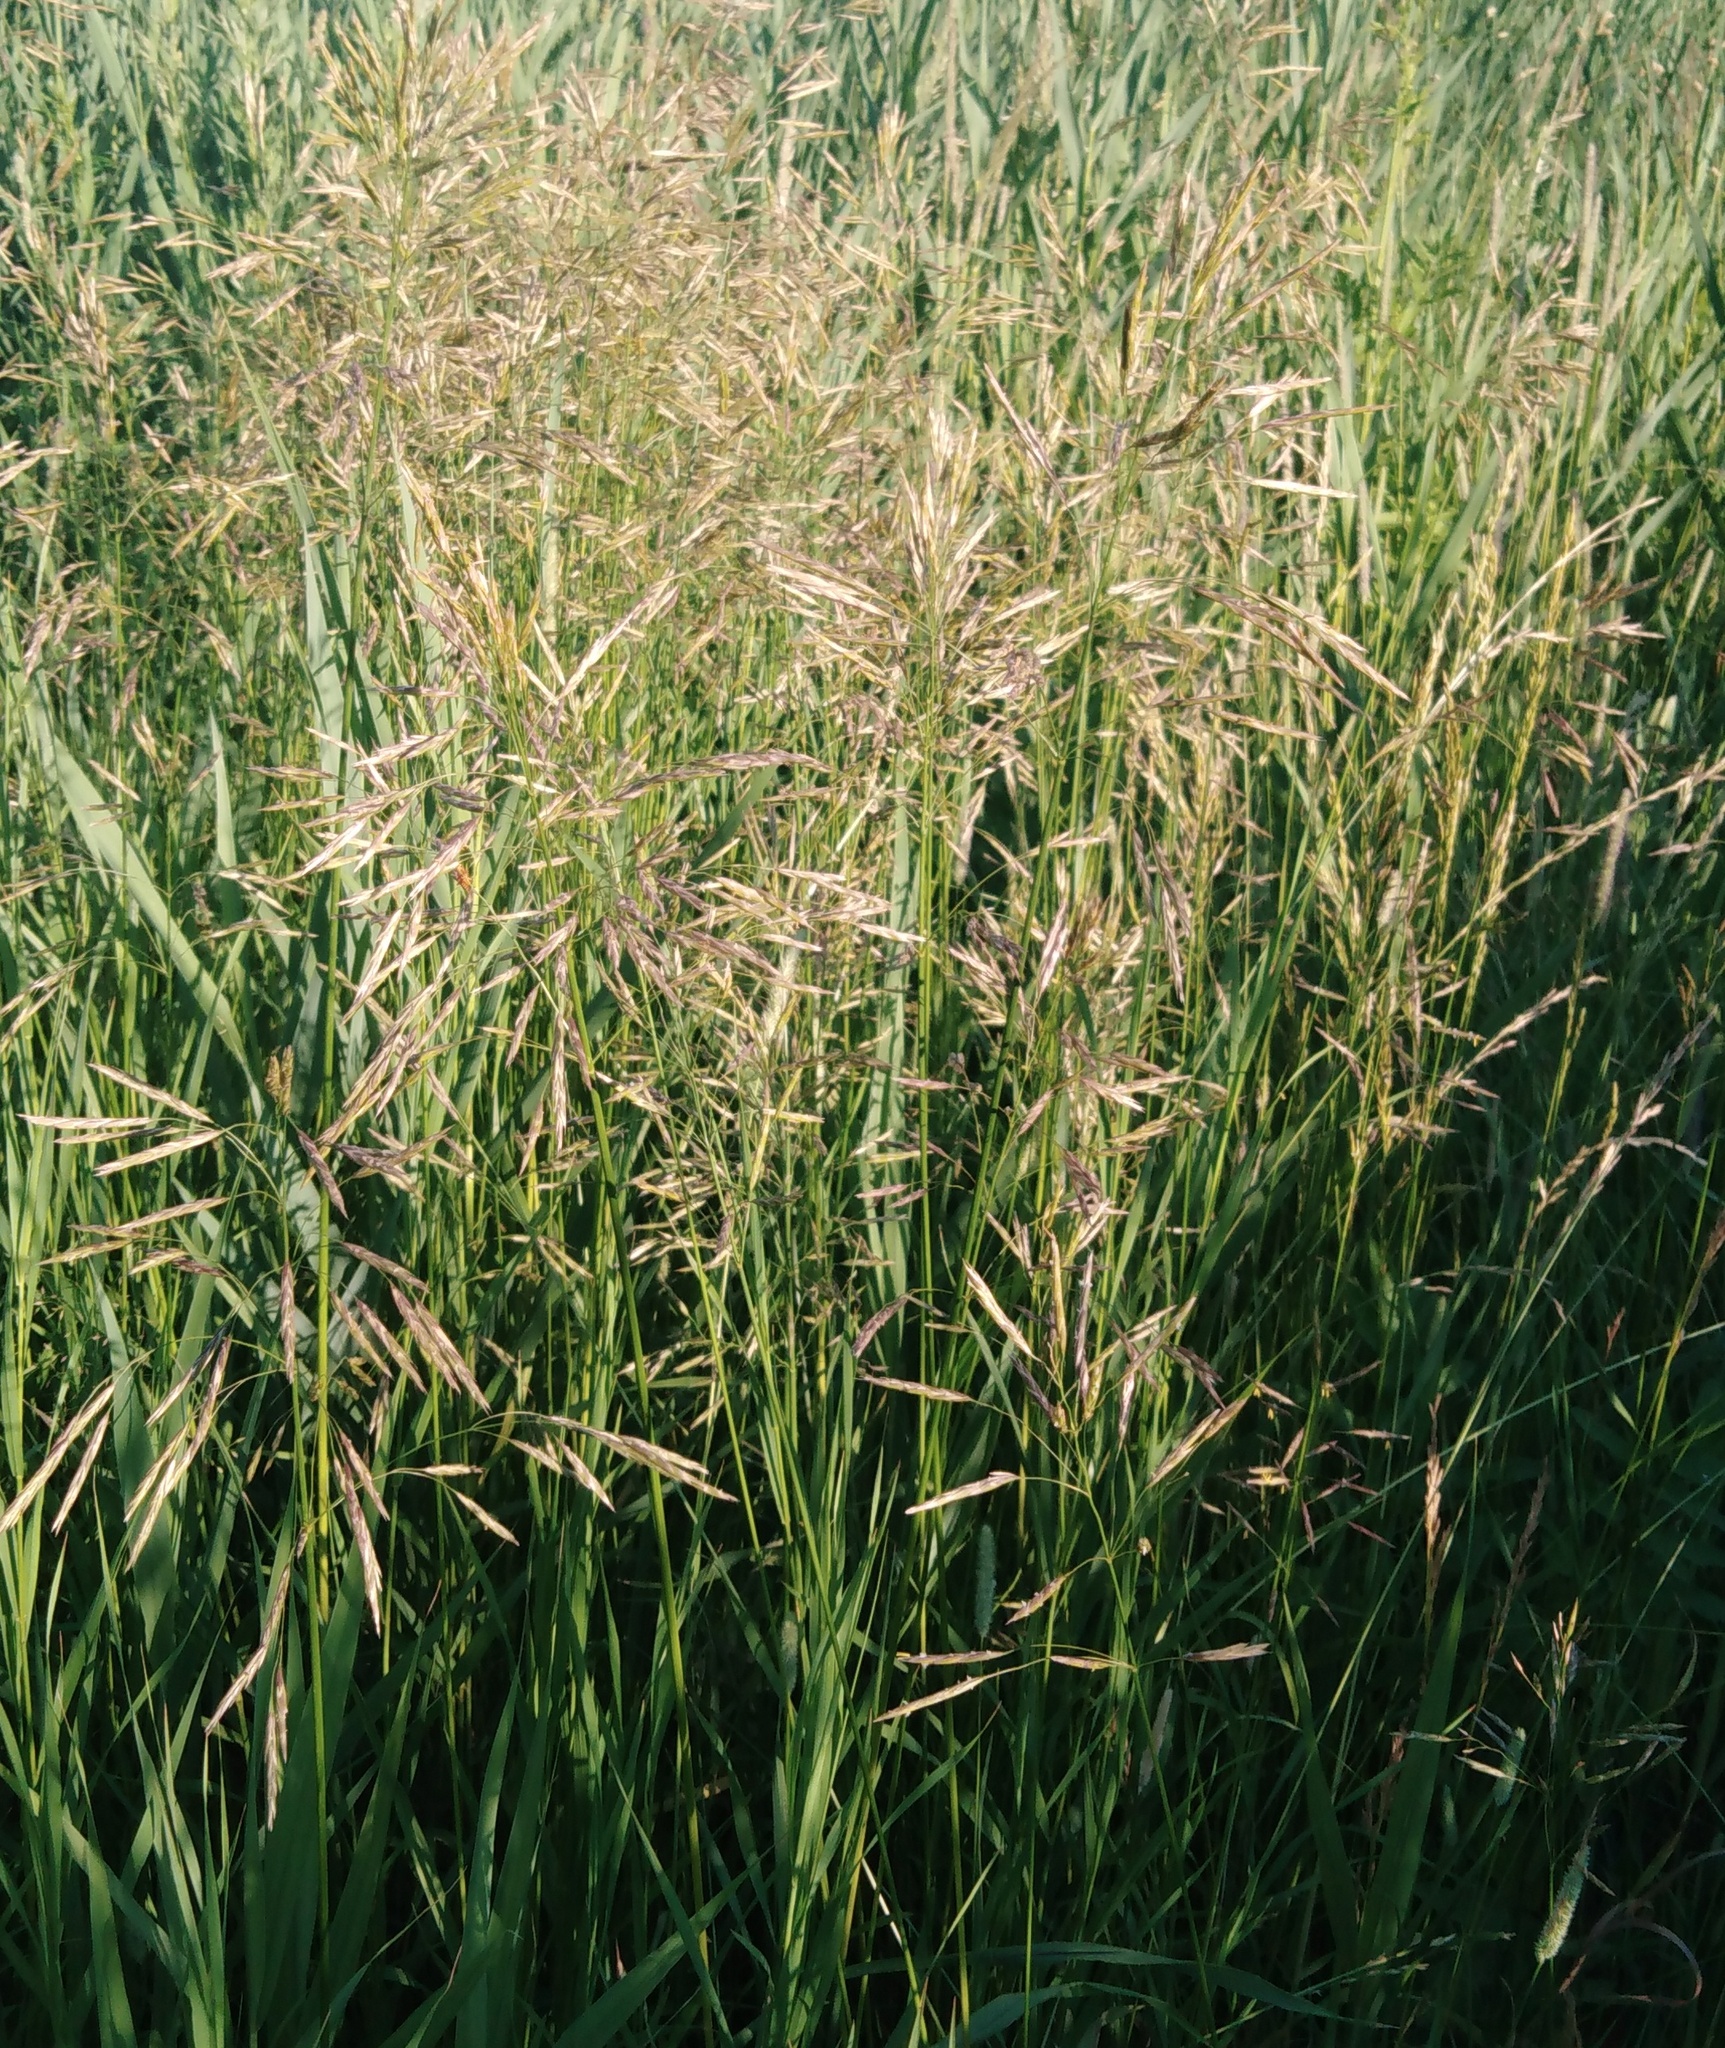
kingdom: Plantae
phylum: Tracheophyta
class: Liliopsida
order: Poales
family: Poaceae
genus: Bromus
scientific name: Bromus inermis
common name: Smooth brome
